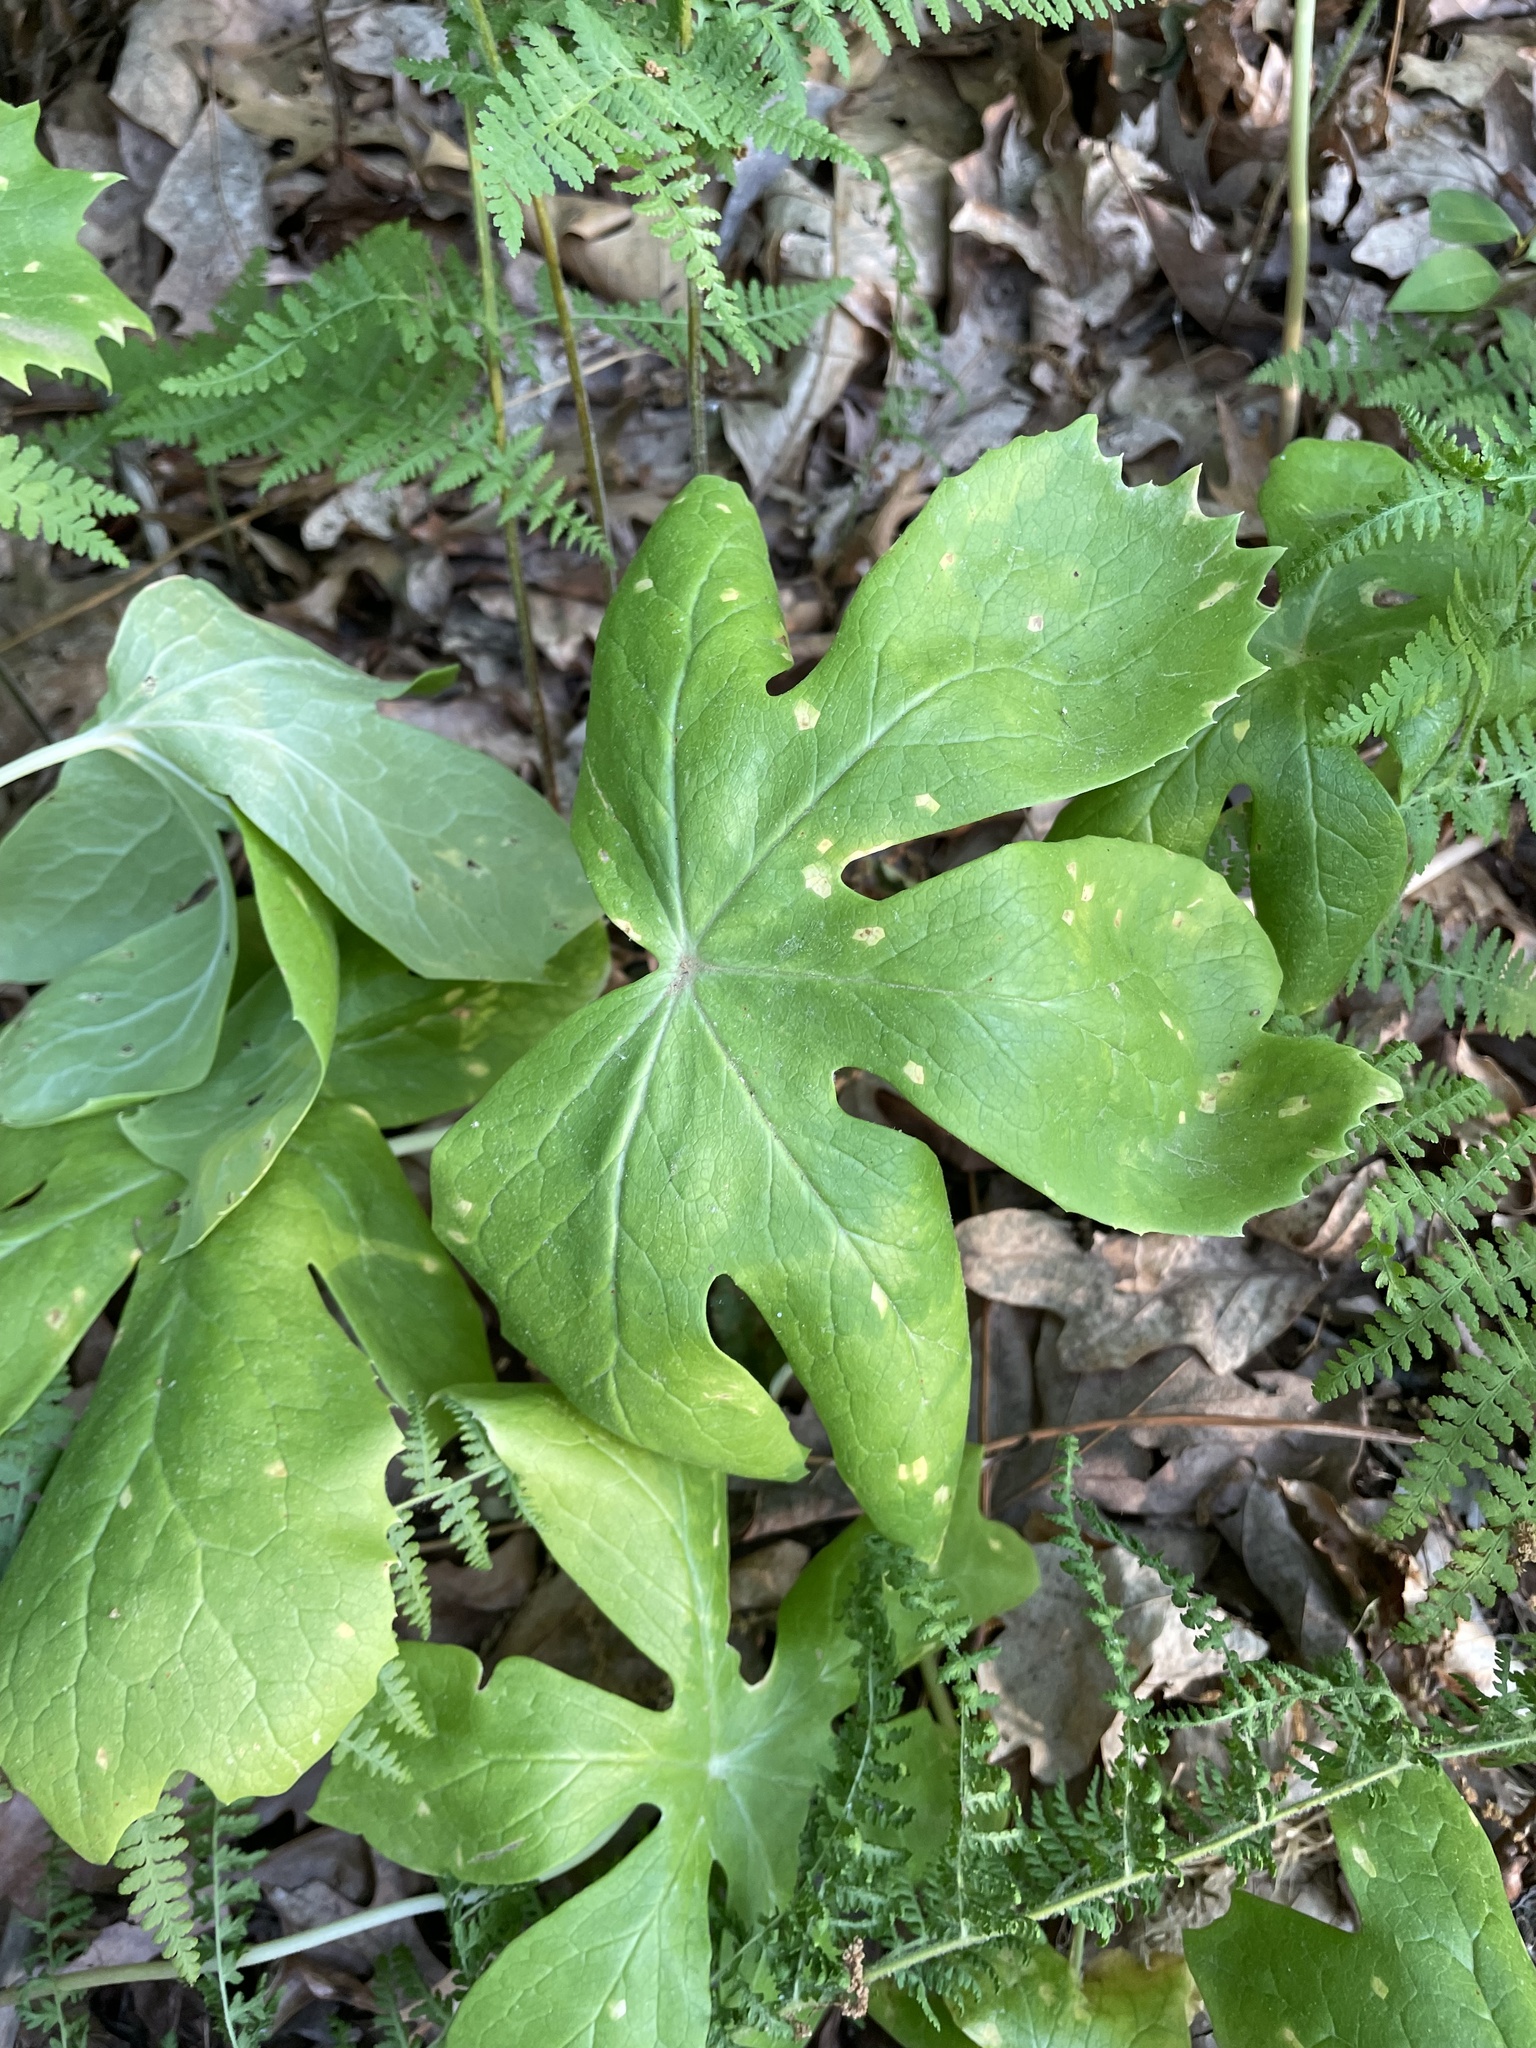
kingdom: Plantae
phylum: Tracheophyta
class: Magnoliopsida
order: Ranunculales
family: Berberidaceae
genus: Podophyllum
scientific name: Podophyllum peltatum
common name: Wild mandrake
